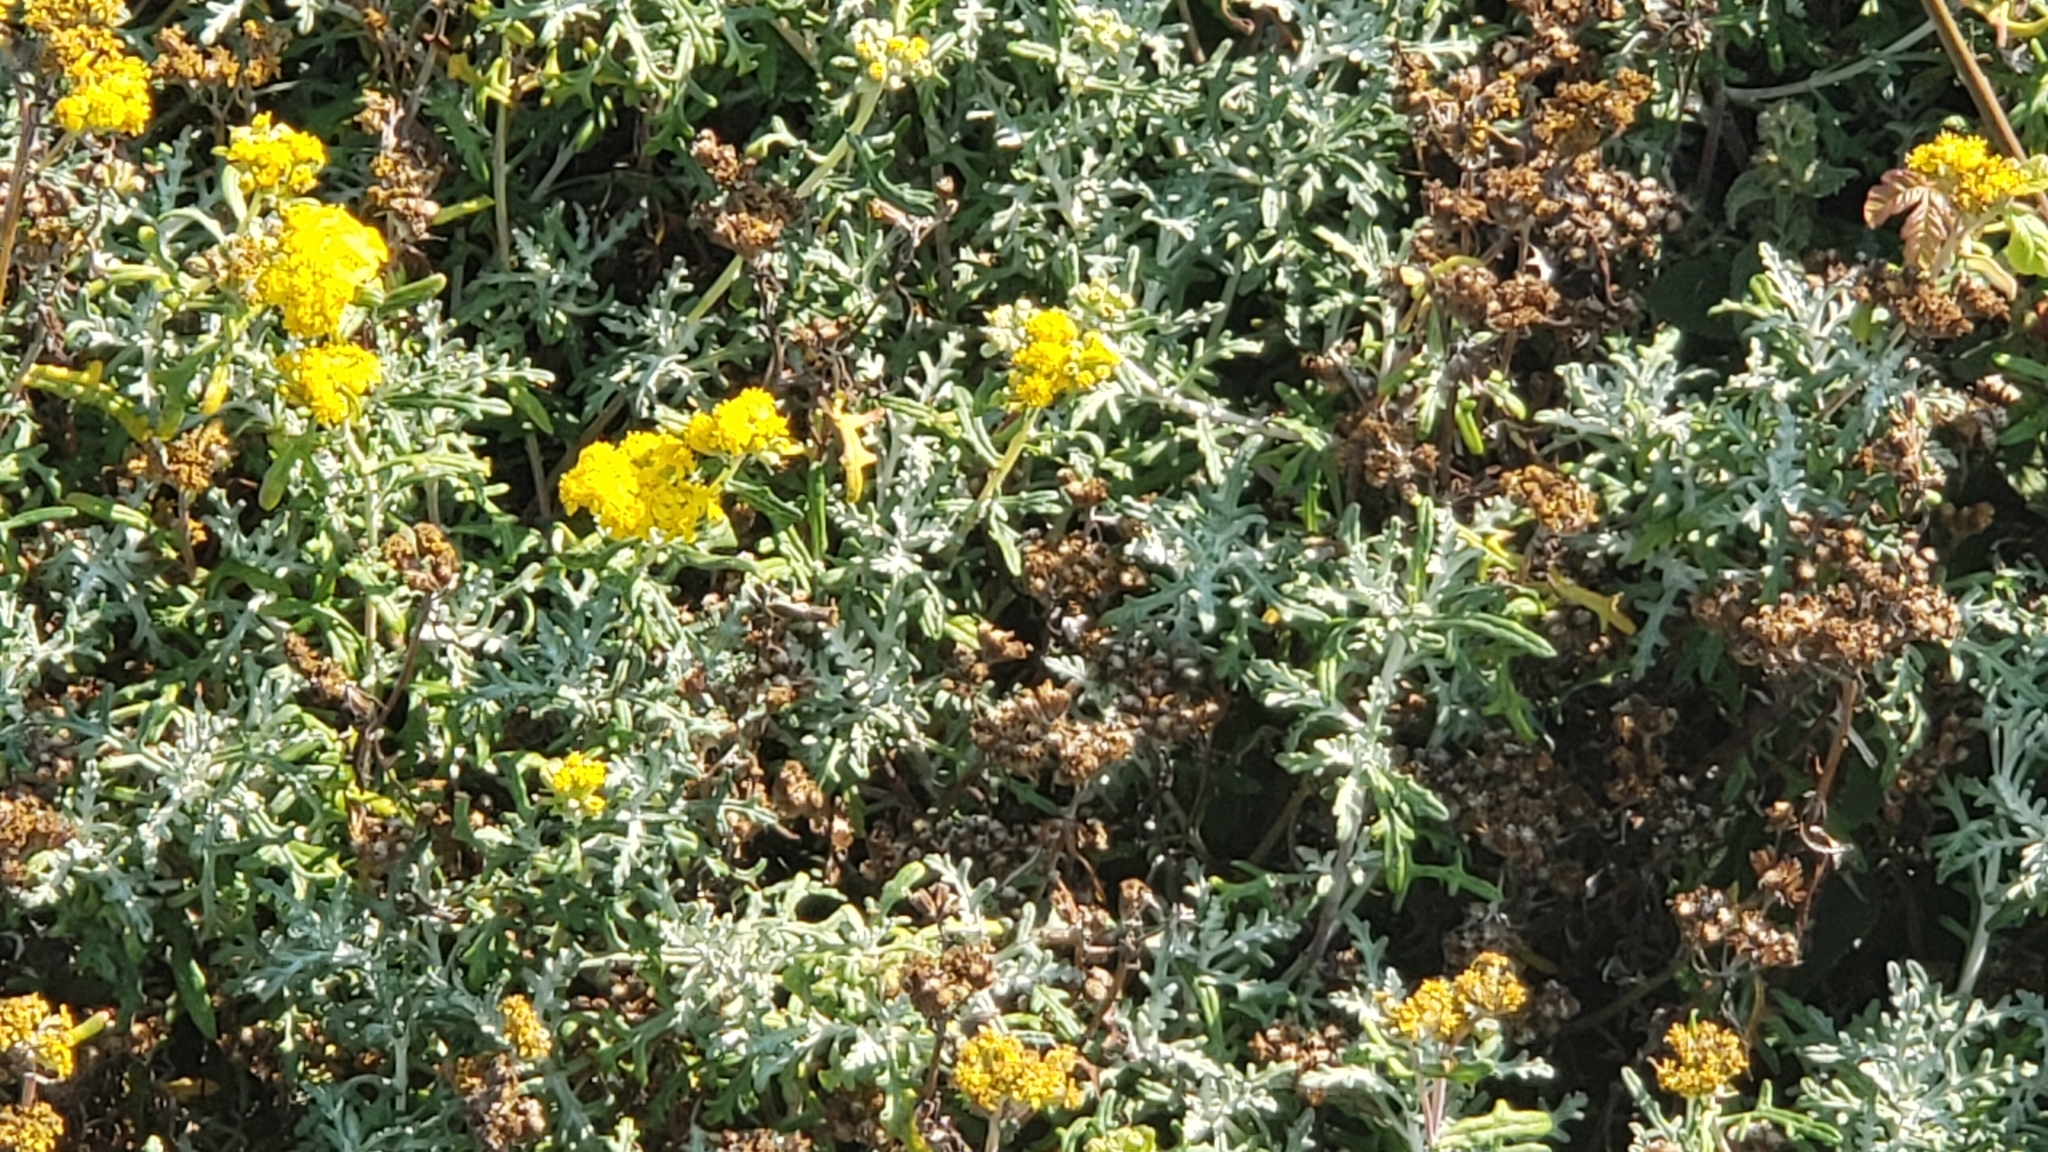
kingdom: Plantae
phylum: Tracheophyta
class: Magnoliopsida
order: Asterales
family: Asteraceae
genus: Eriophyllum
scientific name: Eriophyllum staechadifolium
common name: Lizardtail
